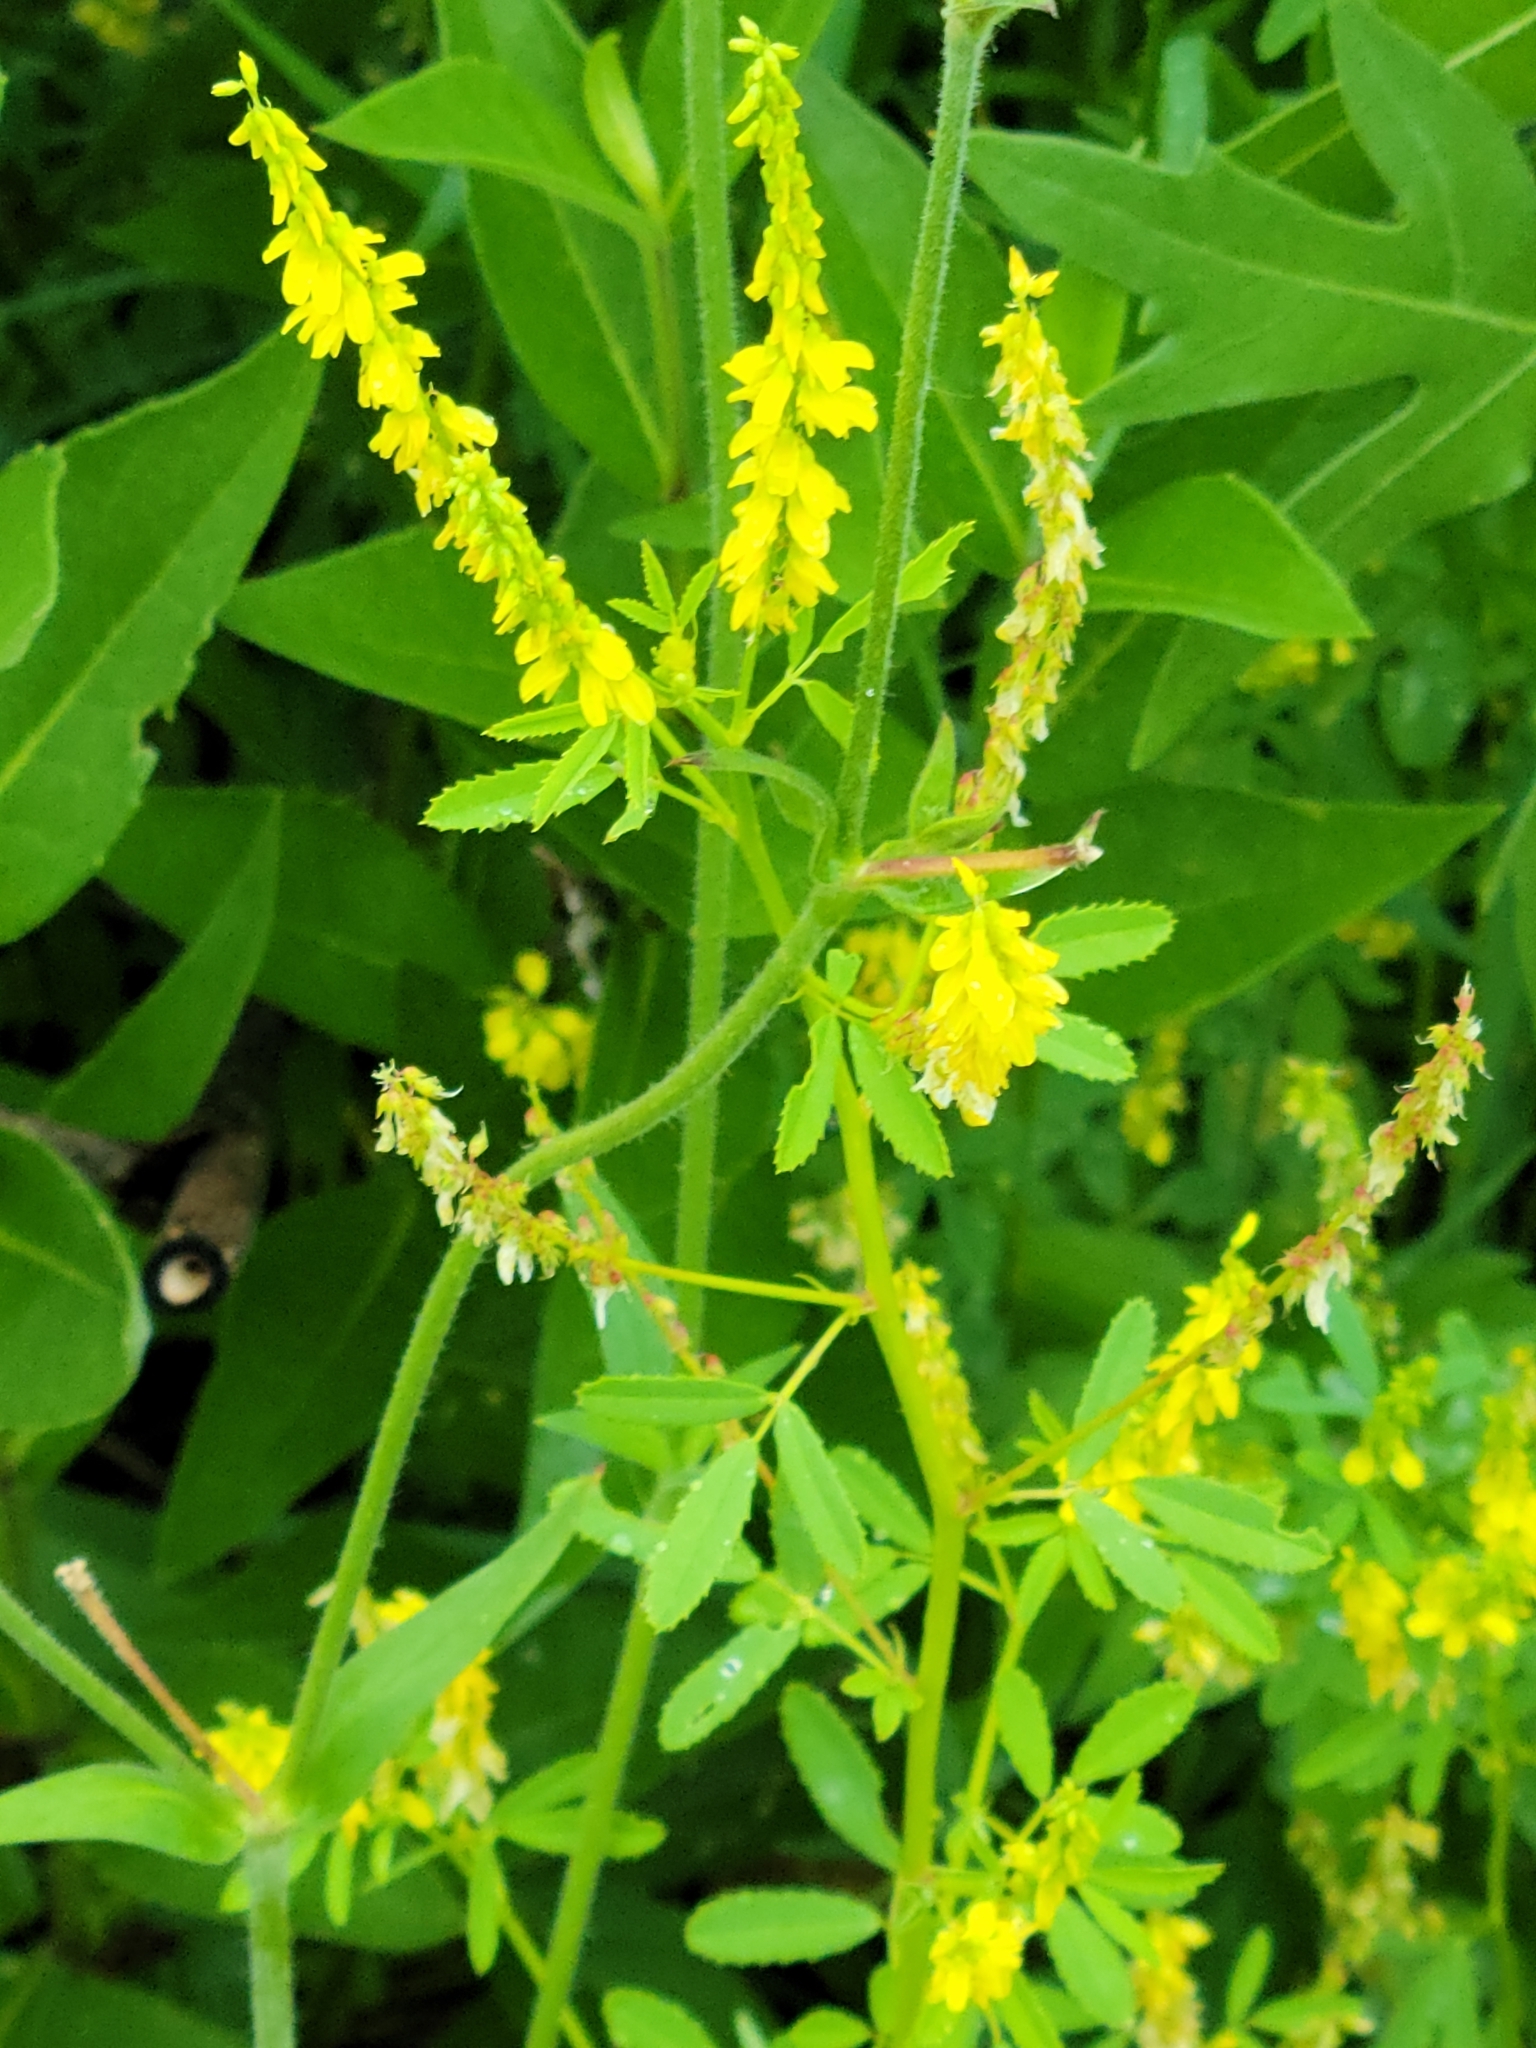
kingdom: Plantae
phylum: Tracheophyta
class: Magnoliopsida
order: Fabales
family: Fabaceae
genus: Melilotus
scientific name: Melilotus officinalis
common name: Sweetclover
